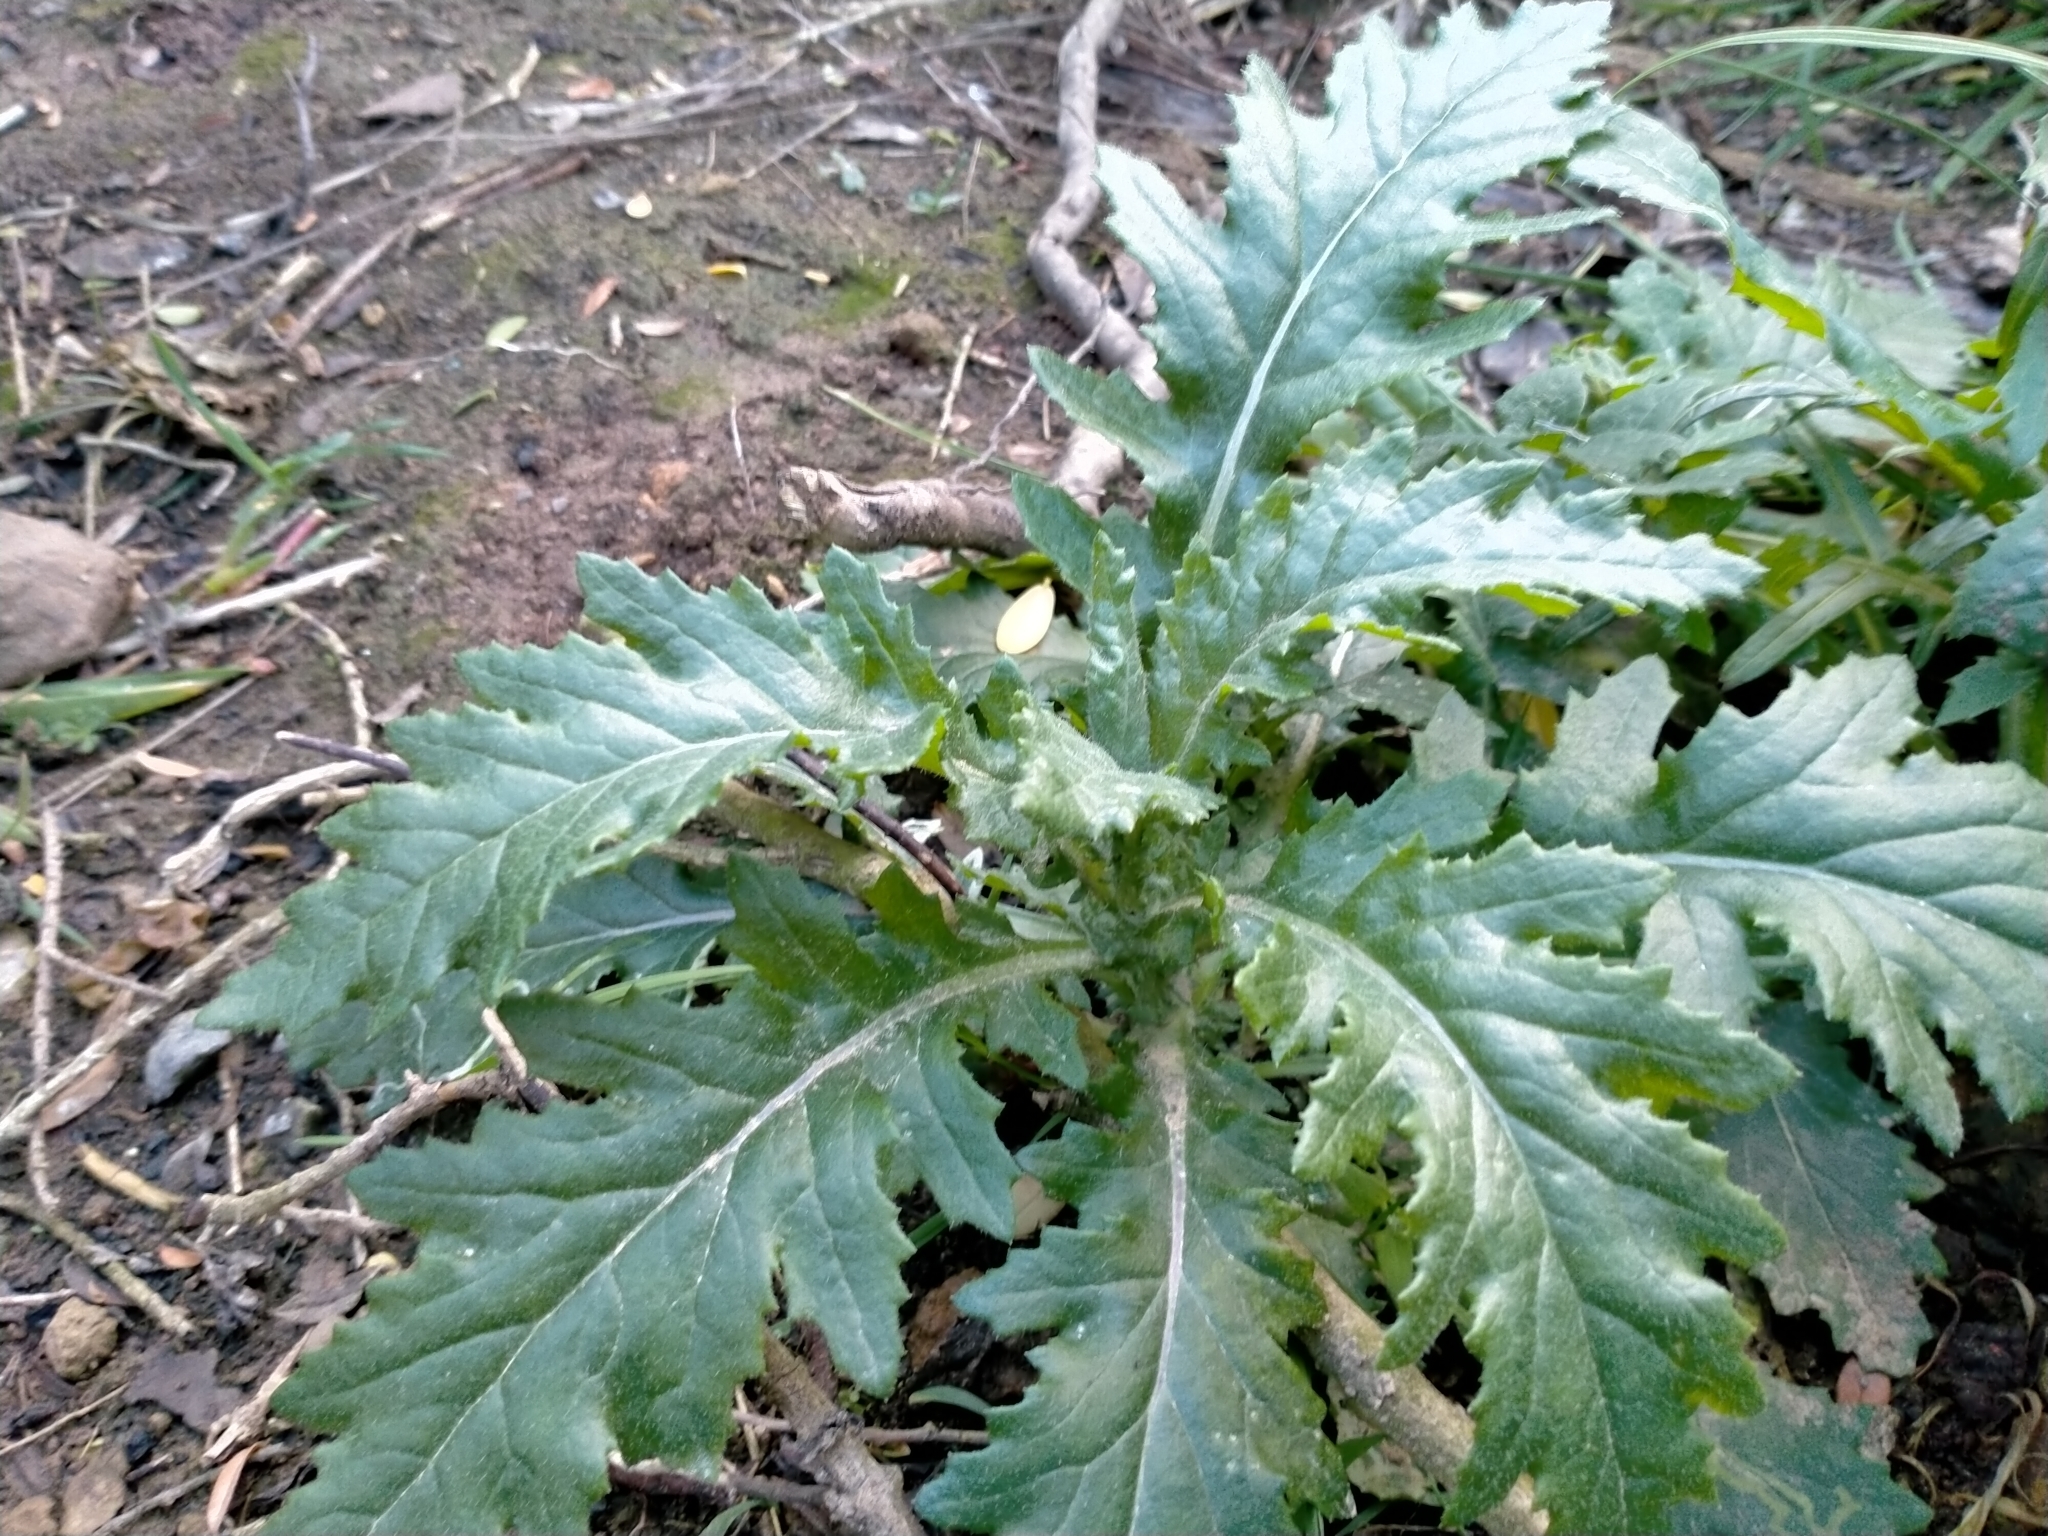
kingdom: Plantae
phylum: Tracheophyta
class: Magnoliopsida
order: Asterales
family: Asteraceae
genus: Senecio
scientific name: Senecio biserratus
